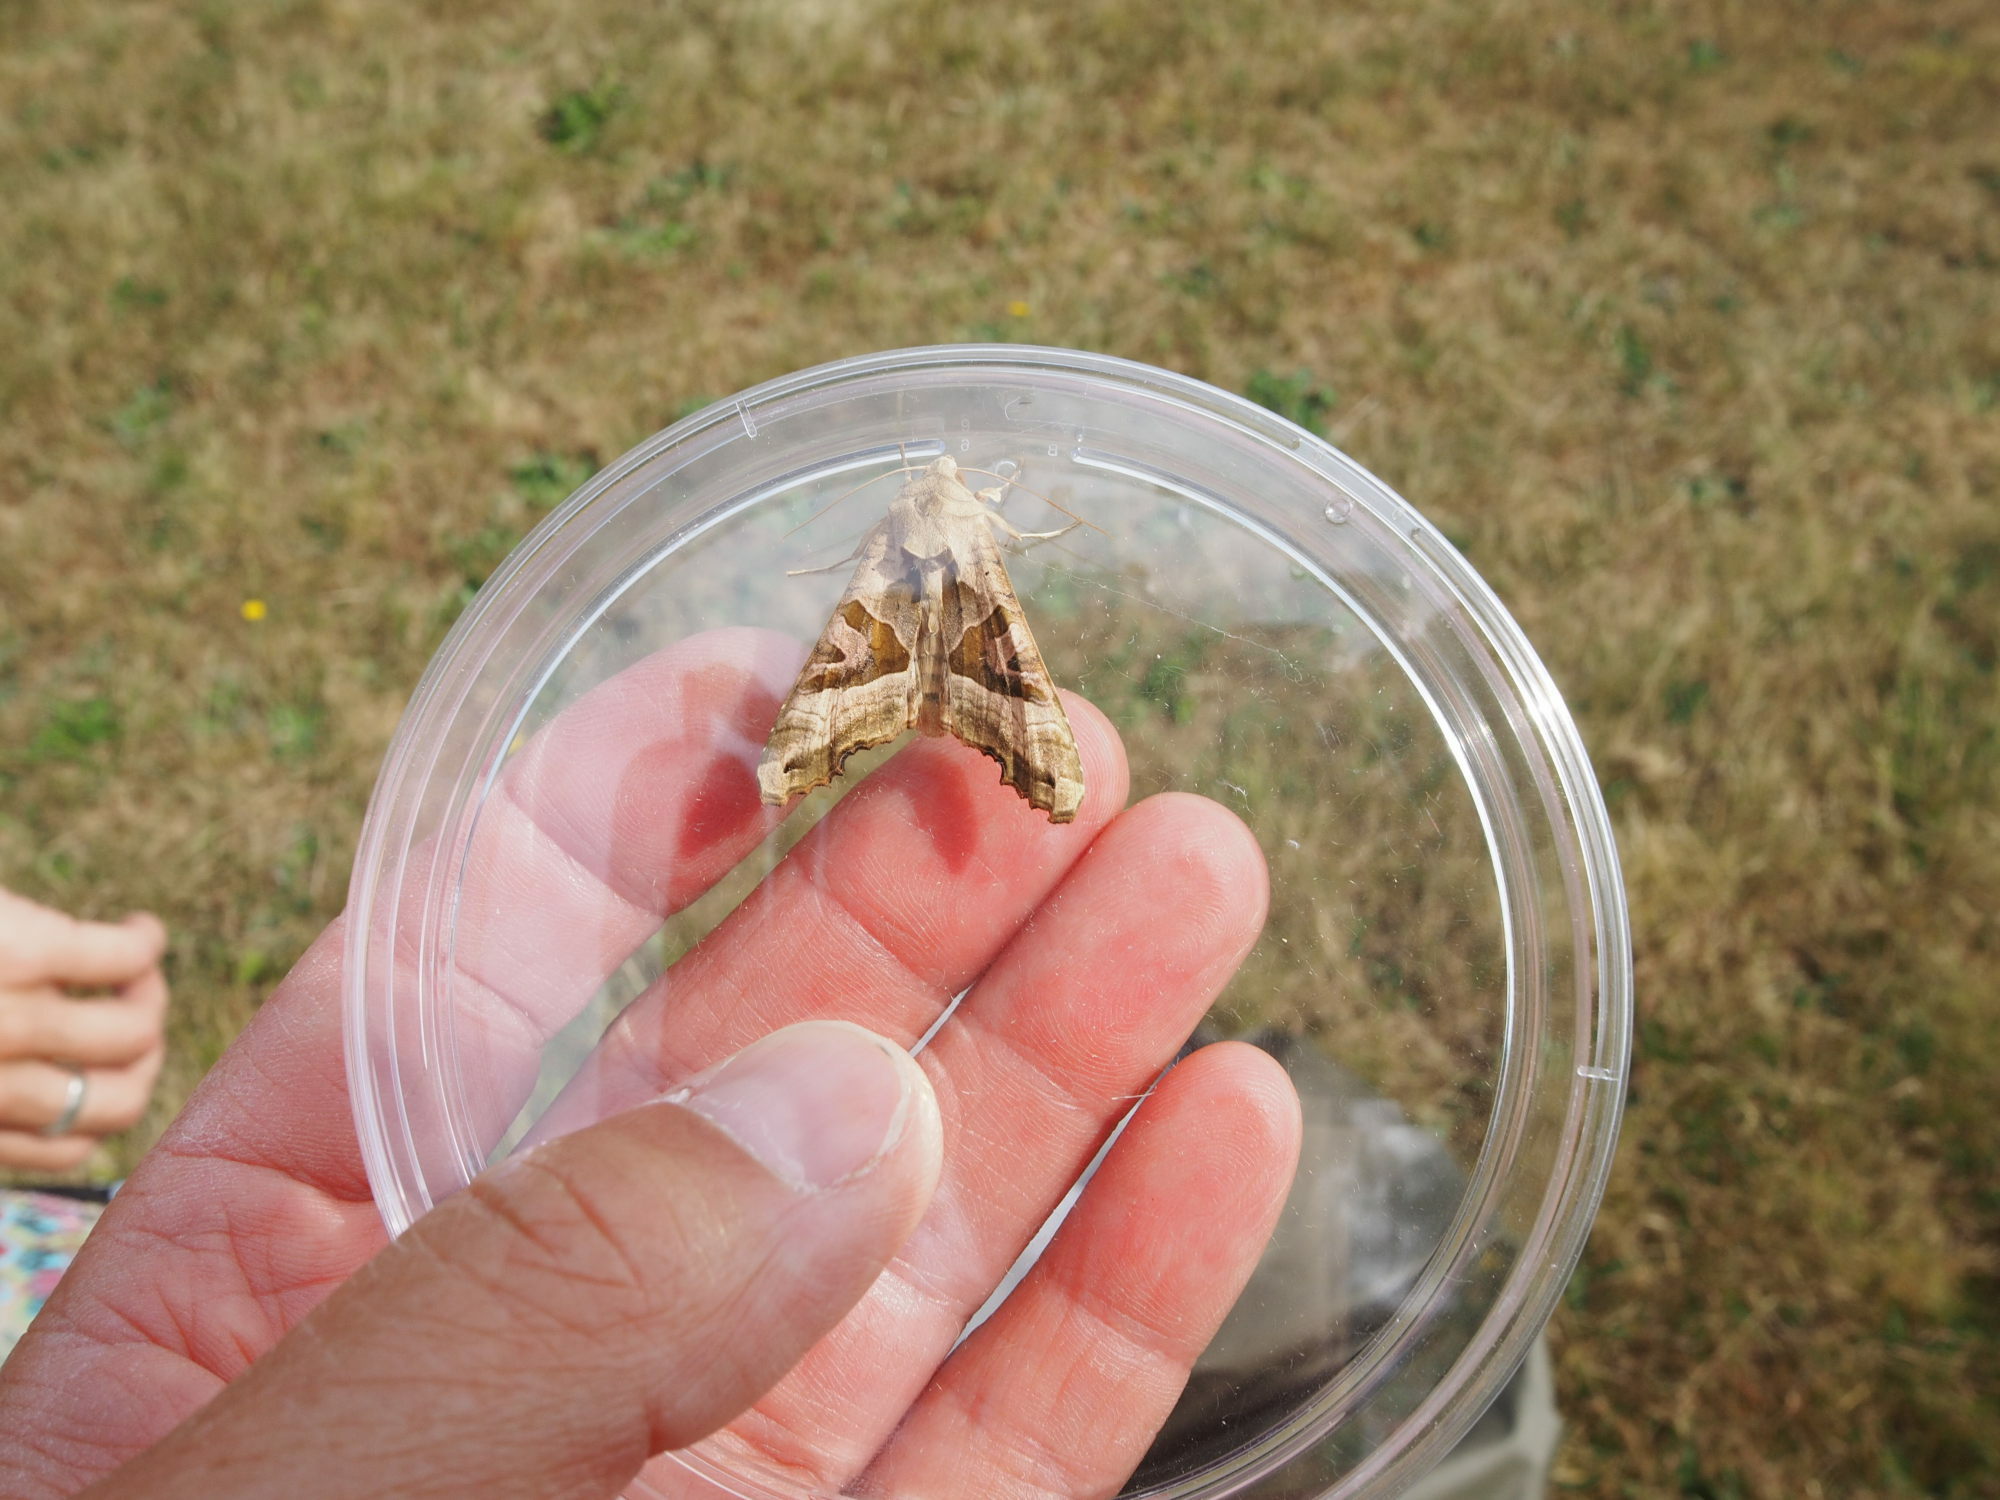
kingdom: Animalia
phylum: Arthropoda
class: Insecta
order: Lepidoptera
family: Noctuidae
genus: Phlogophora
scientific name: Phlogophora meticulosa
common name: Angle shades
